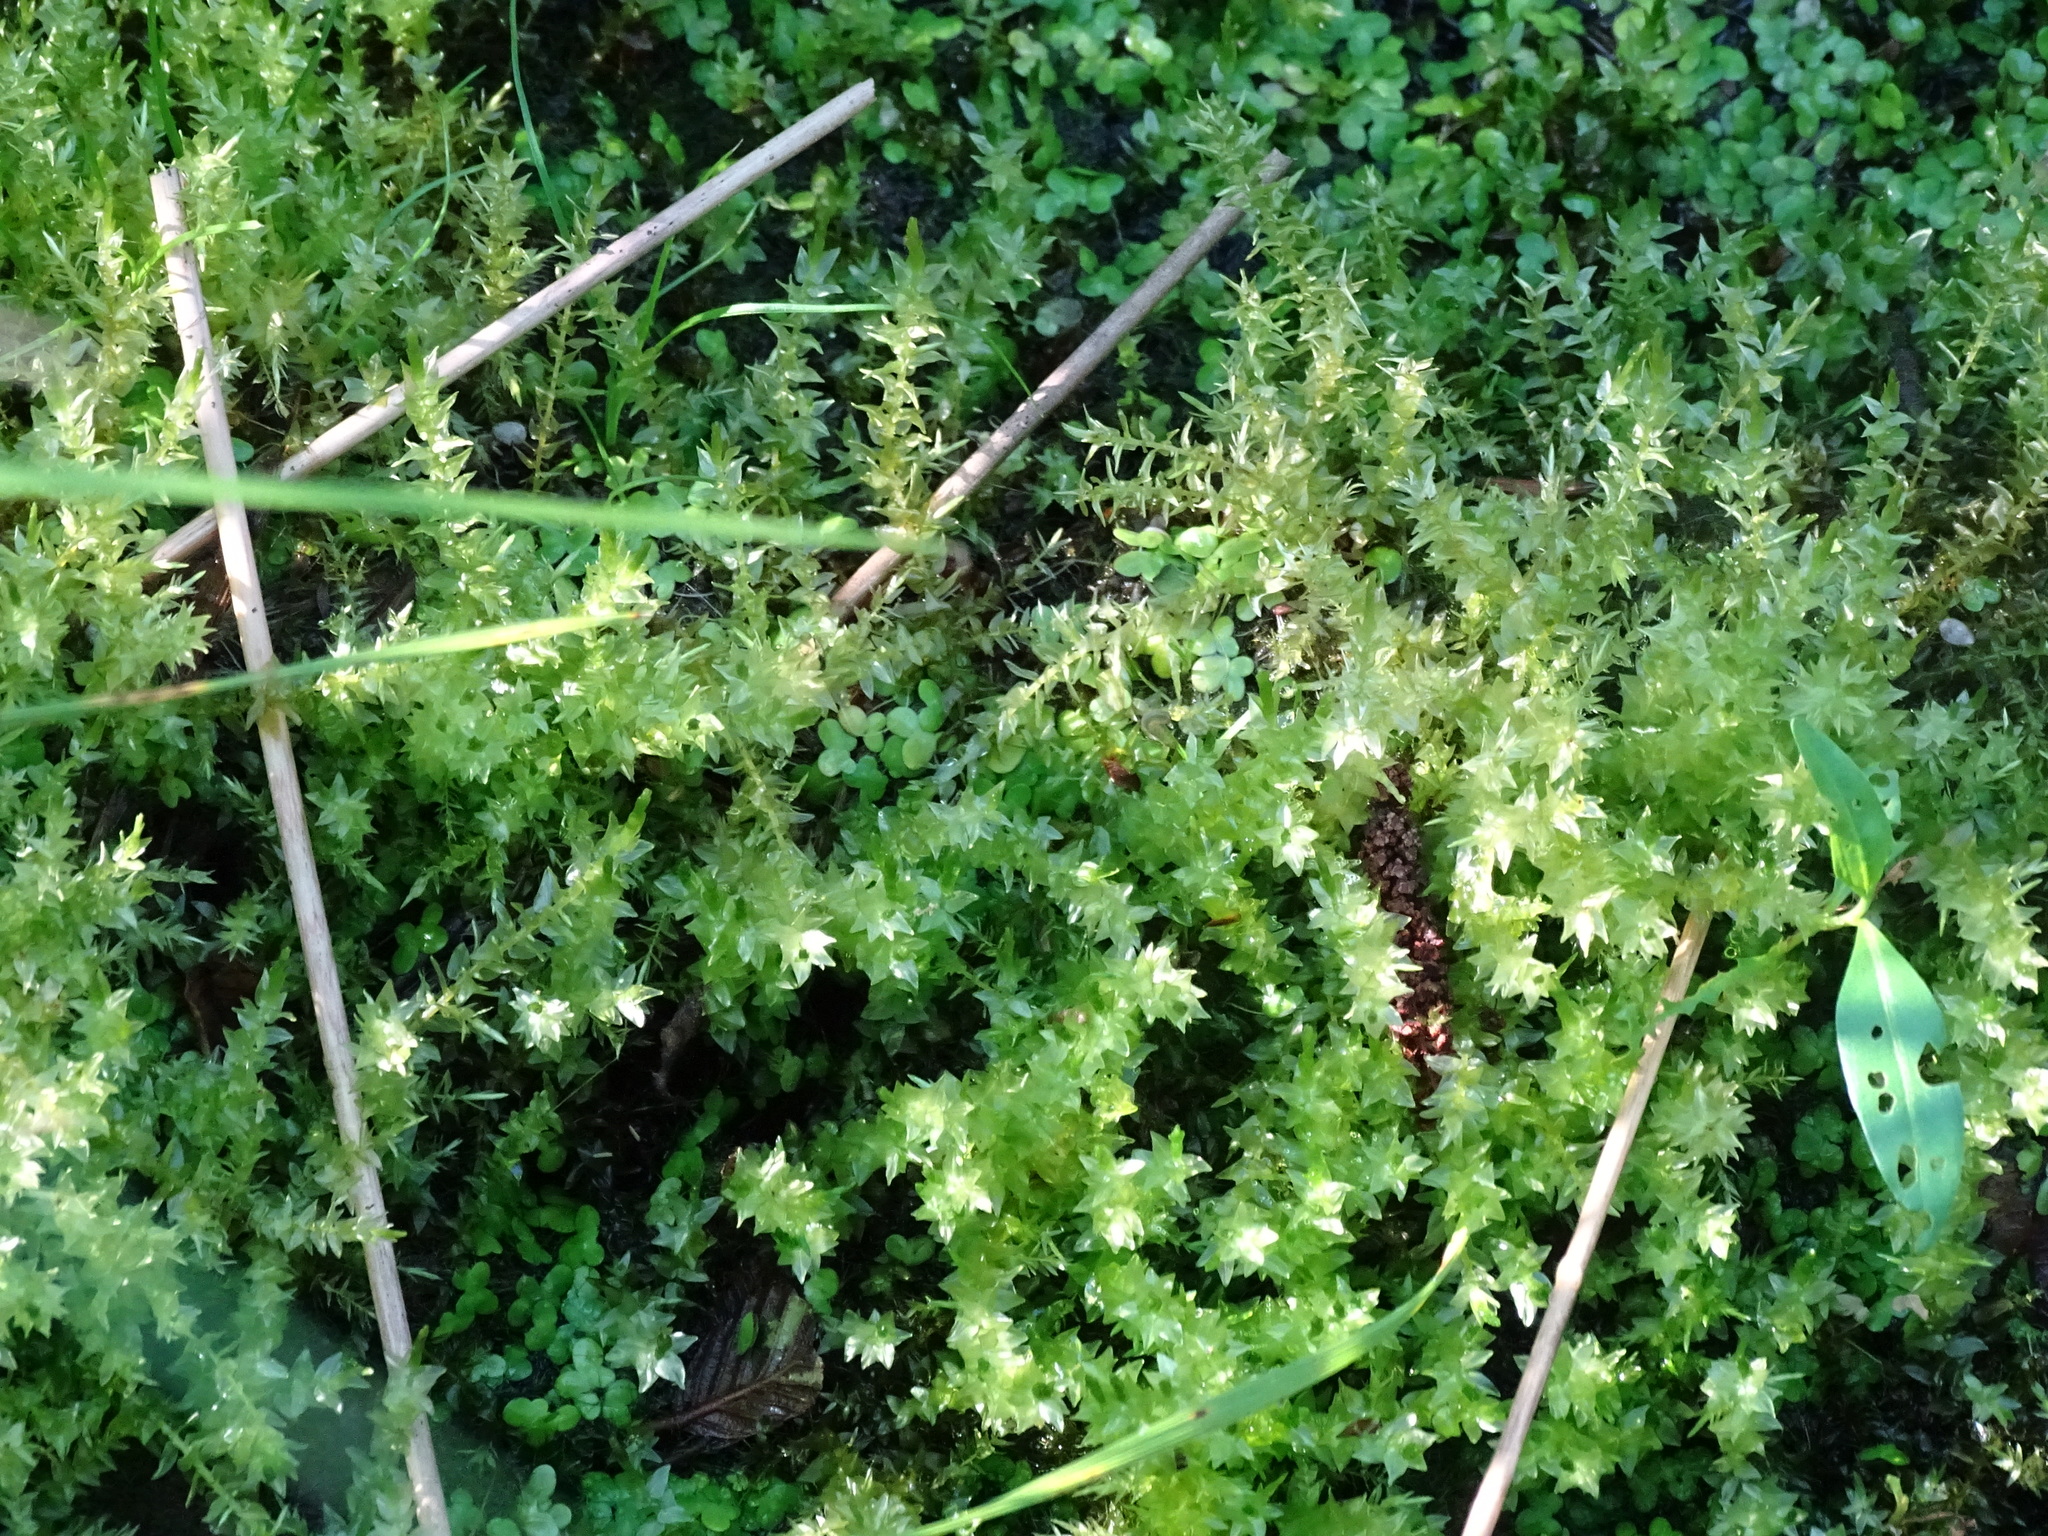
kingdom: Plantae
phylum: Bryophyta
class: Bryopsida
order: Hypnales
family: Calliergonaceae
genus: Calliergon
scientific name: Calliergon cordifolium
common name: Heart-leaved spear moss
